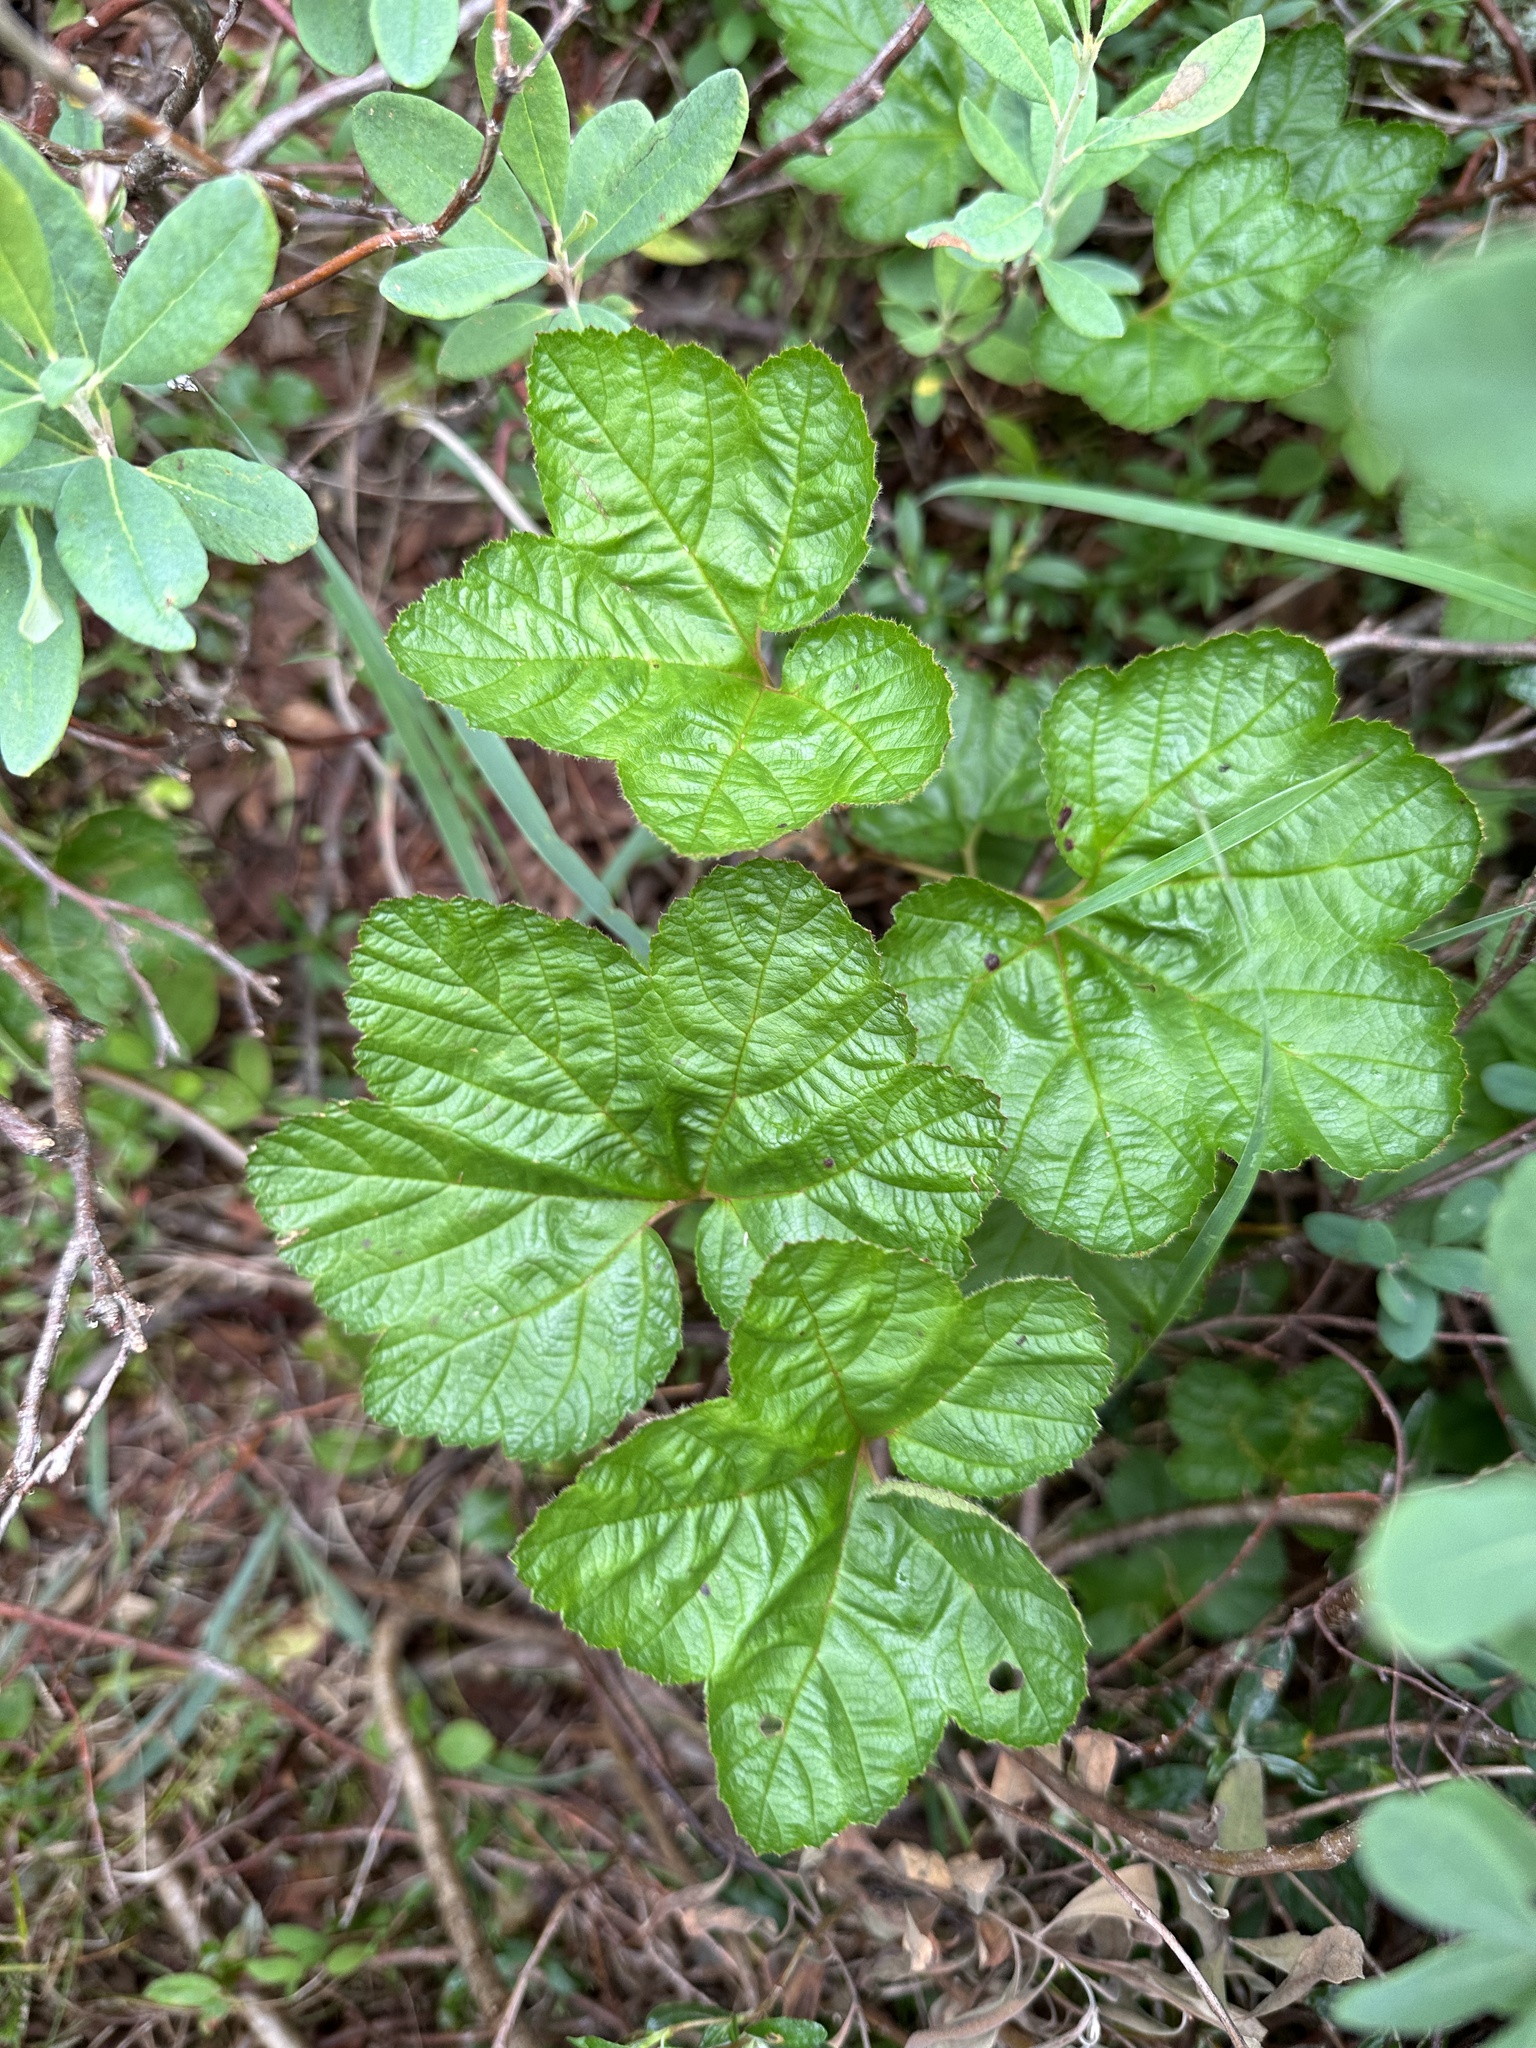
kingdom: Plantae
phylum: Tracheophyta
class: Magnoliopsida
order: Rosales
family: Rosaceae
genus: Rubus
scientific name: Rubus chamaemorus
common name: Cloudberry
